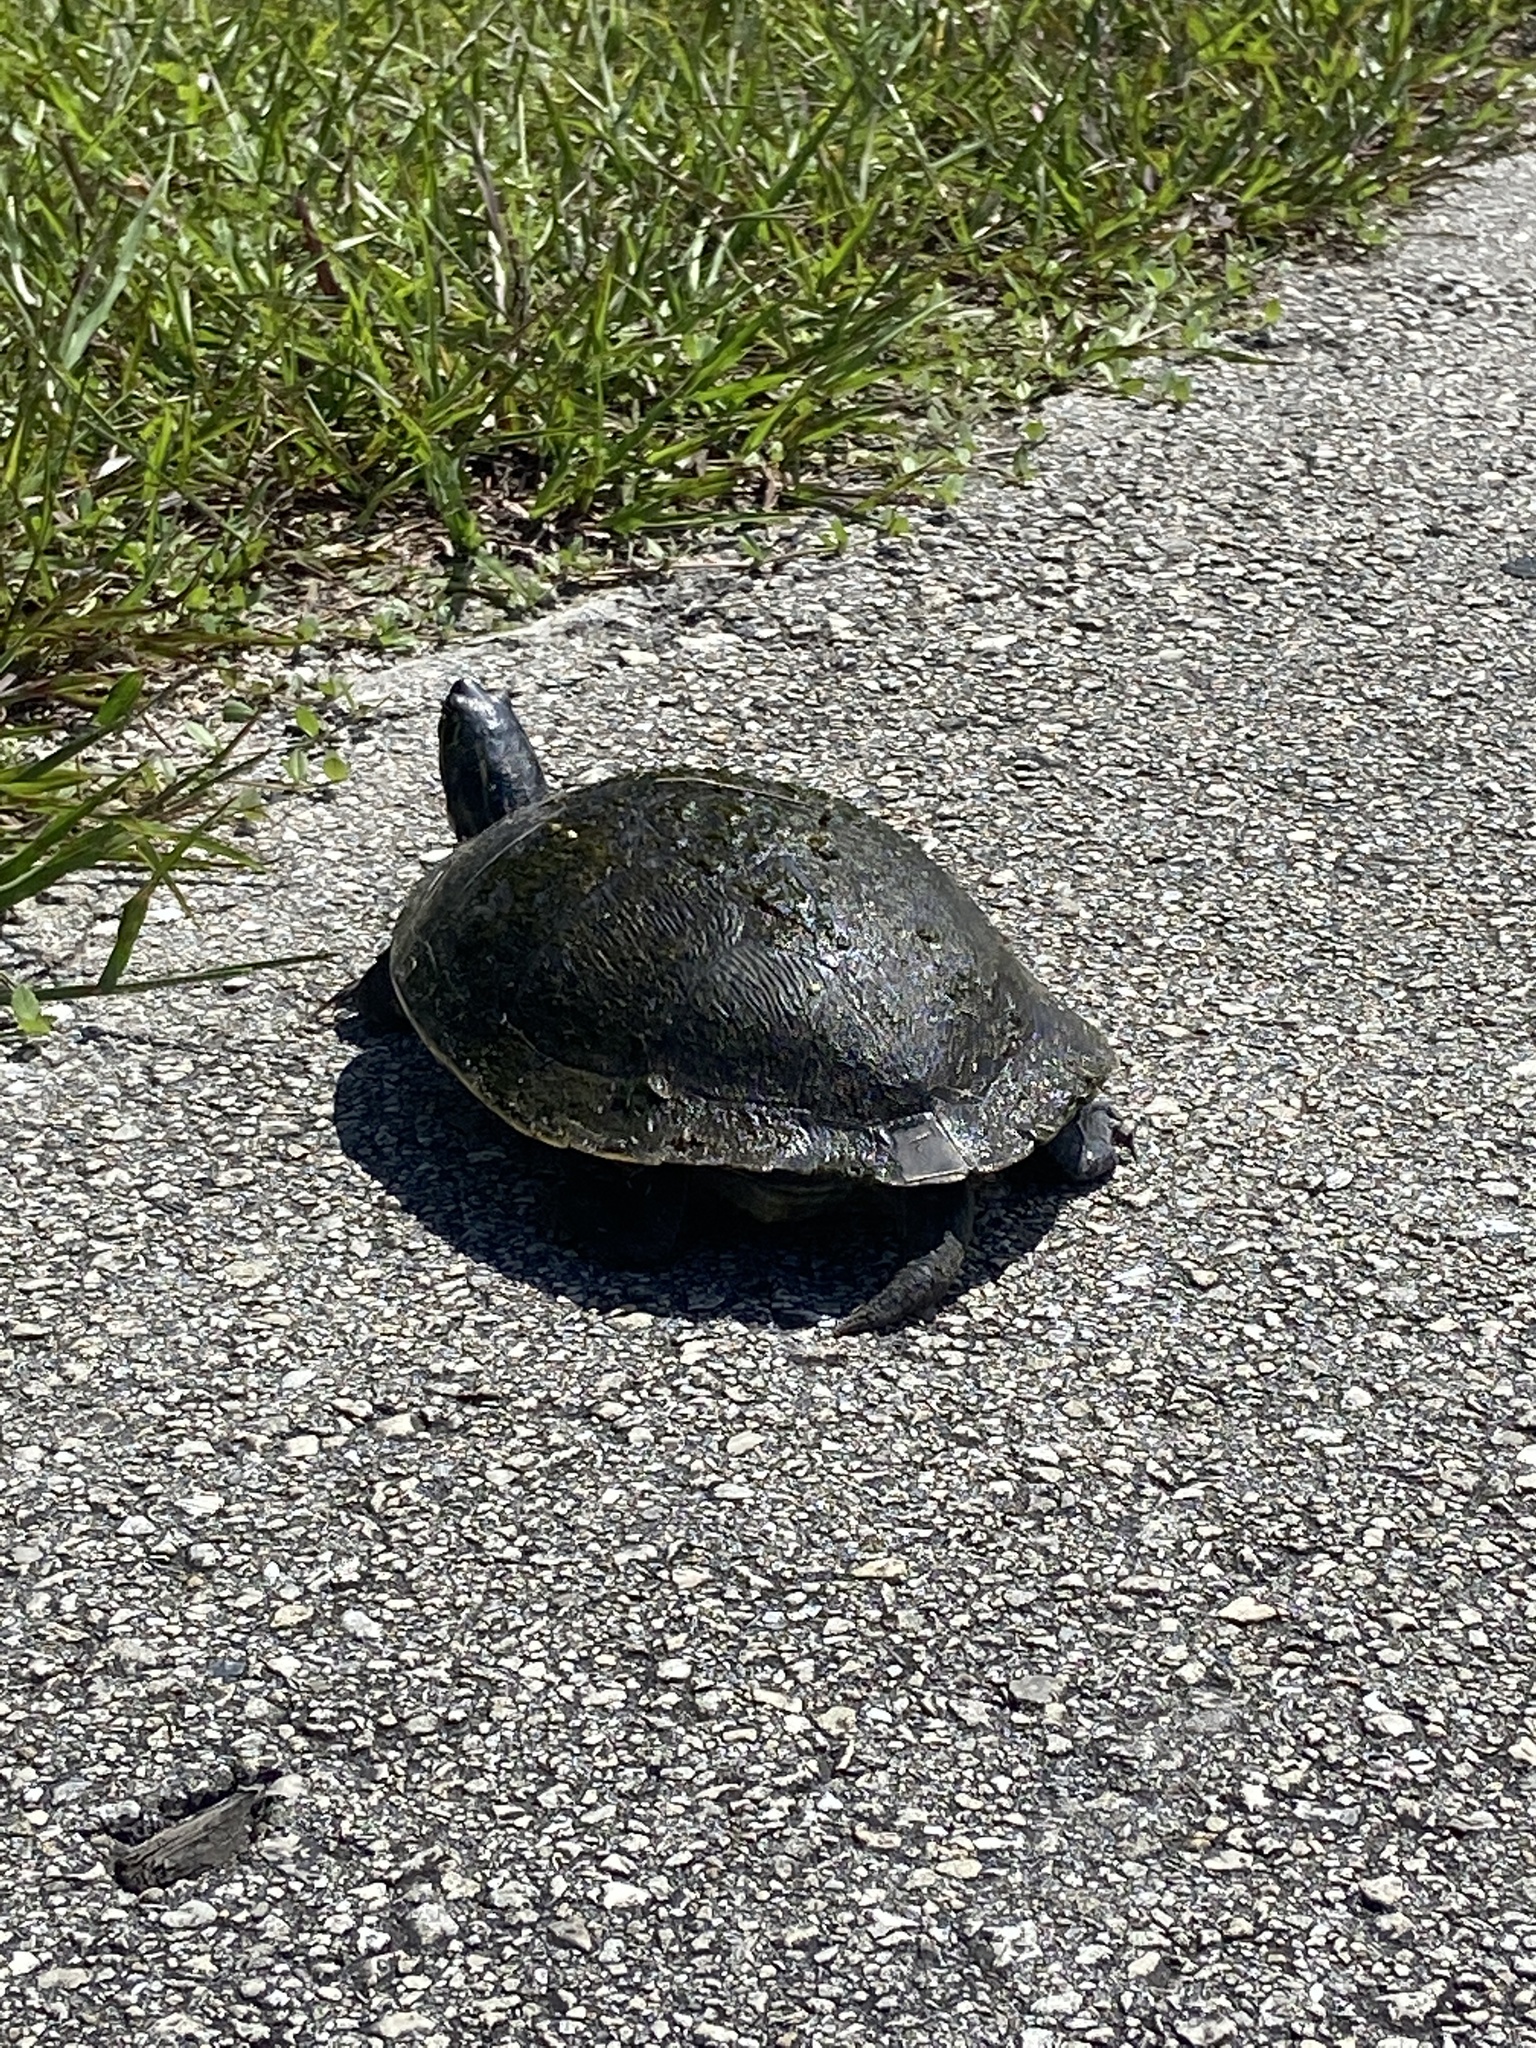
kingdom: Animalia
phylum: Chordata
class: Testudines
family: Emydidae
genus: Pseudemys
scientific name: Pseudemys peninsularis
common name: Peninsula cooter
